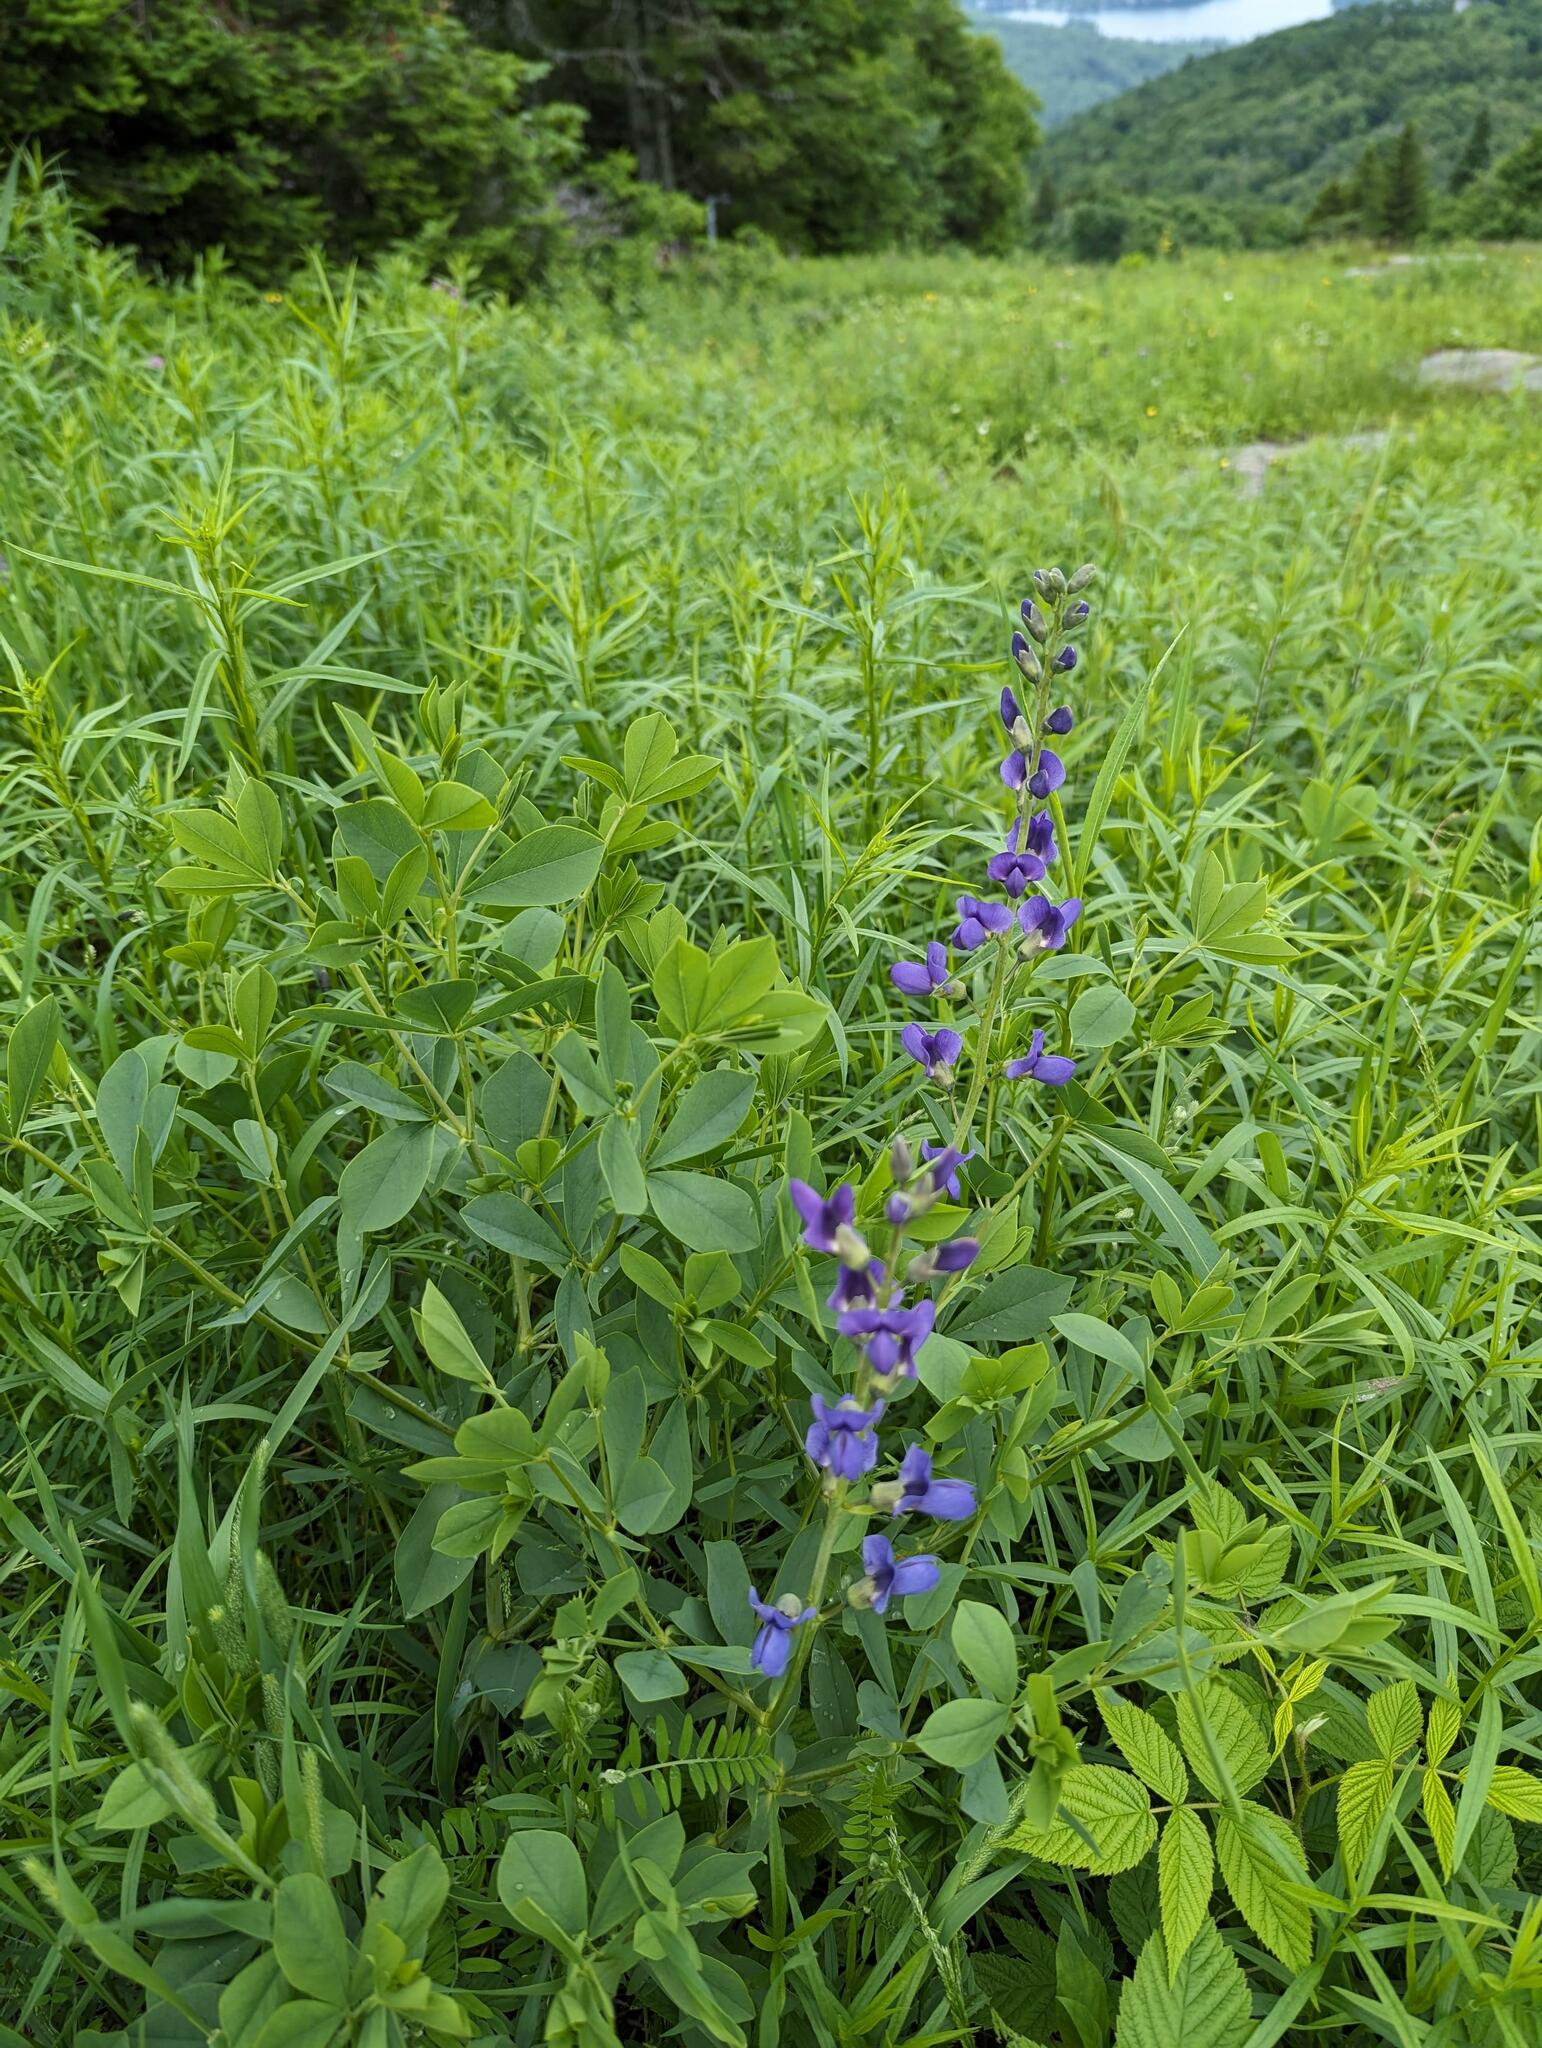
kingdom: Plantae
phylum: Tracheophyta
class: Magnoliopsida
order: Fabales
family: Fabaceae
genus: Baptisia
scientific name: Baptisia australis
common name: Blue false indigo
